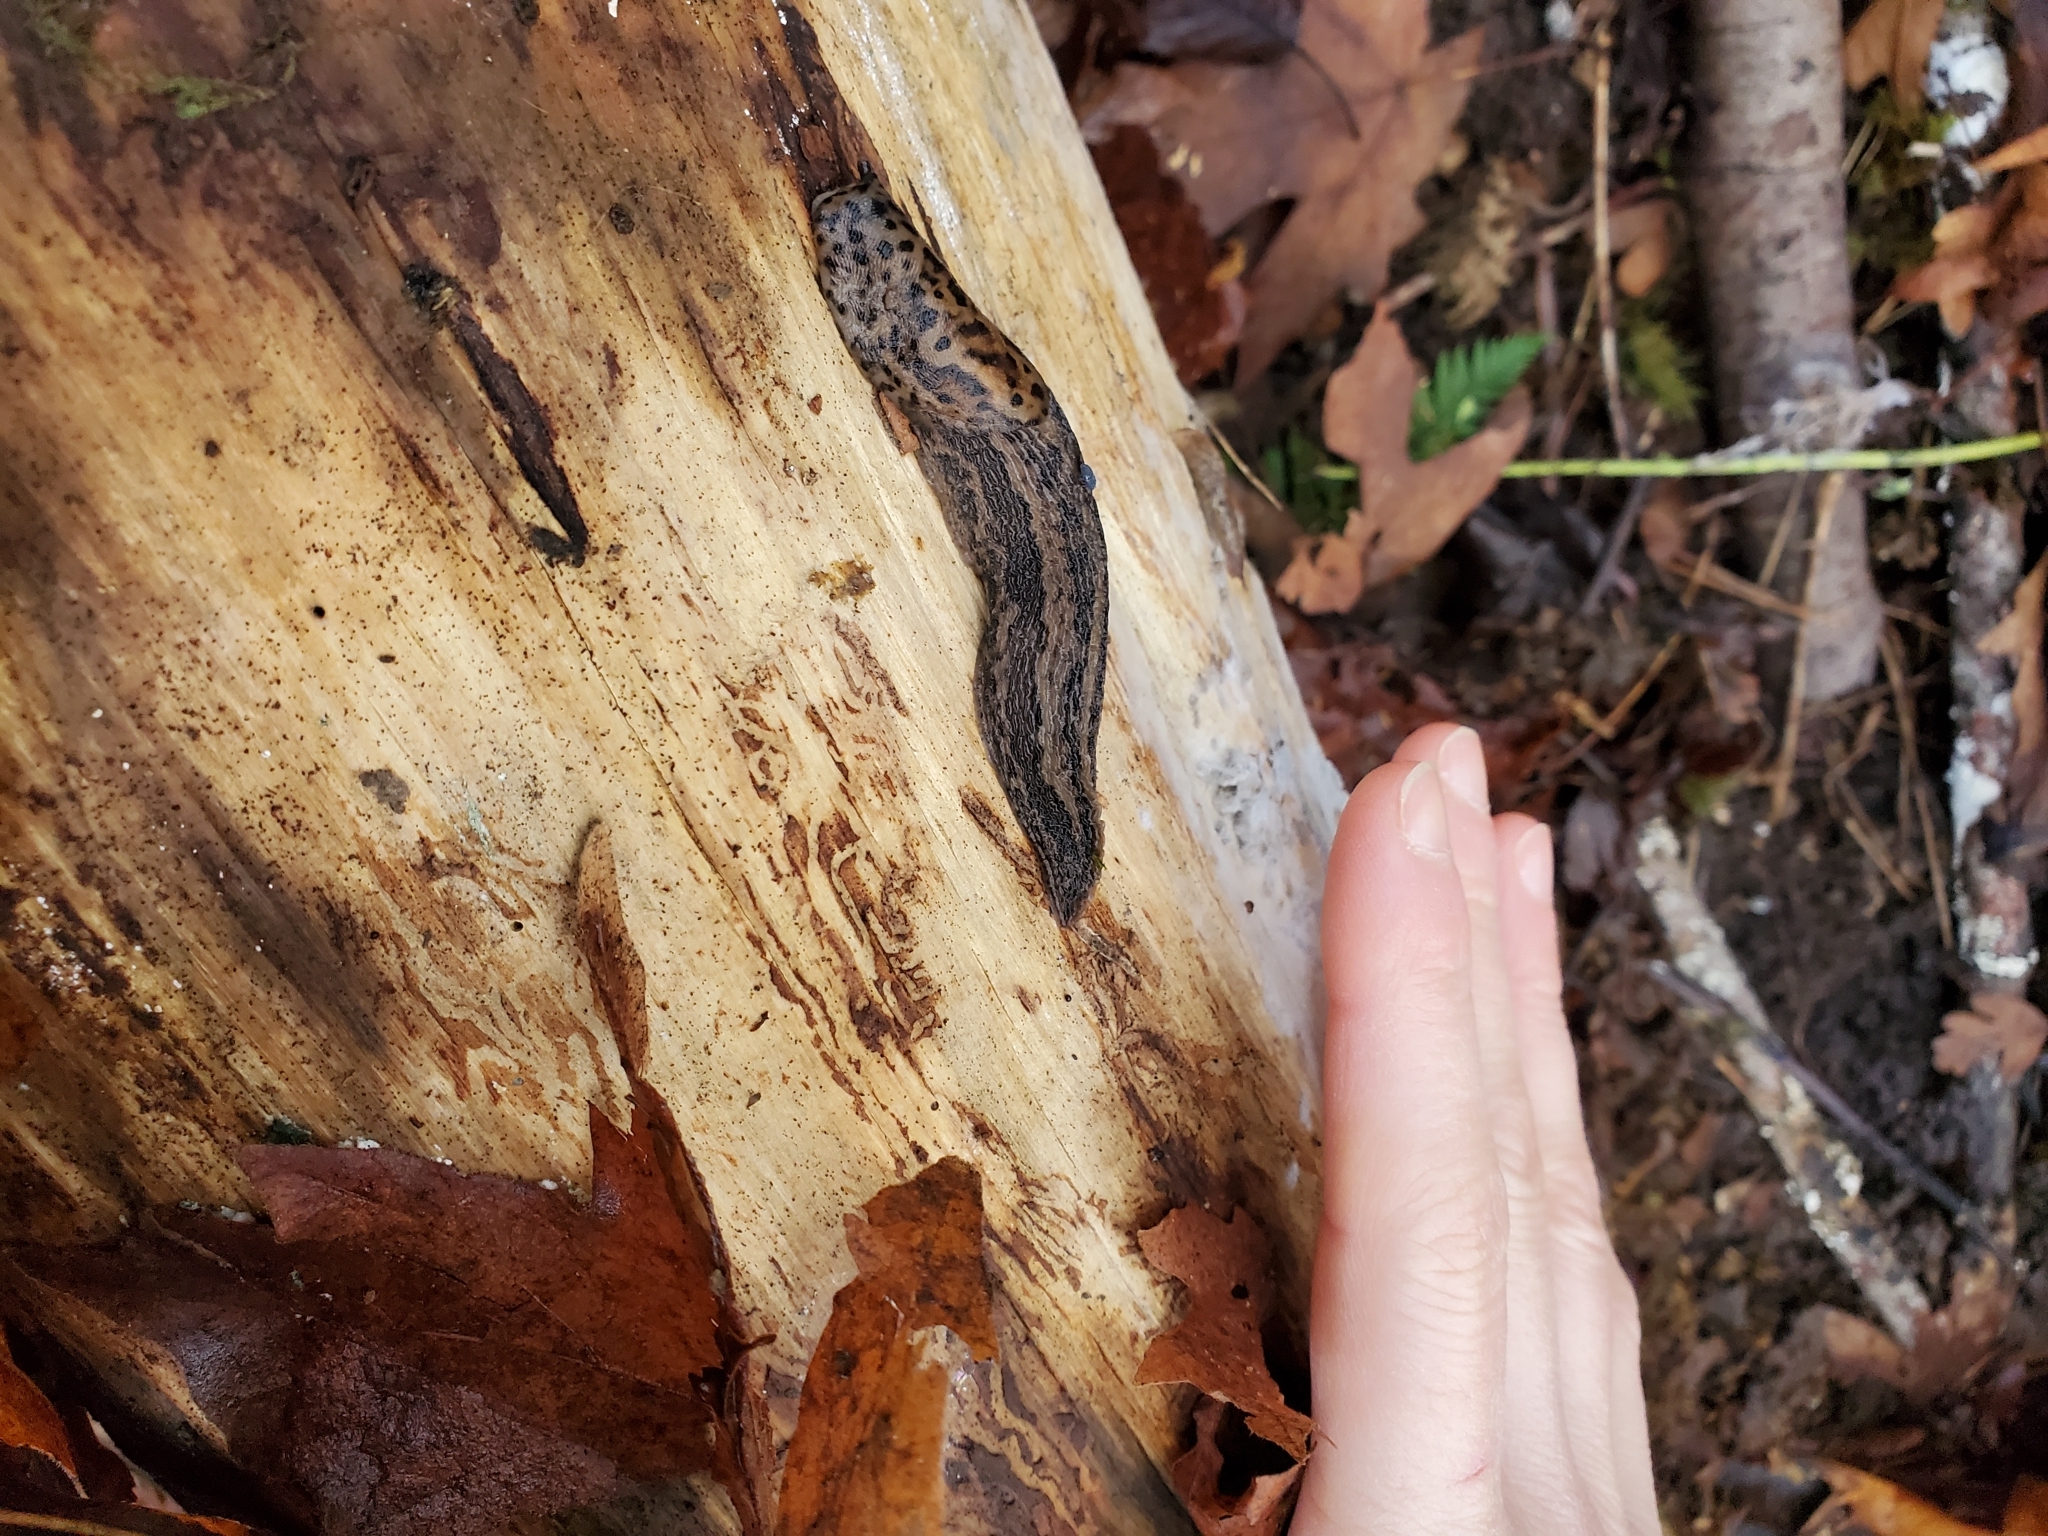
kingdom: Animalia
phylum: Mollusca
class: Gastropoda
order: Stylommatophora
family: Limacidae
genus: Limax
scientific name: Limax maximus
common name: Great grey slug
